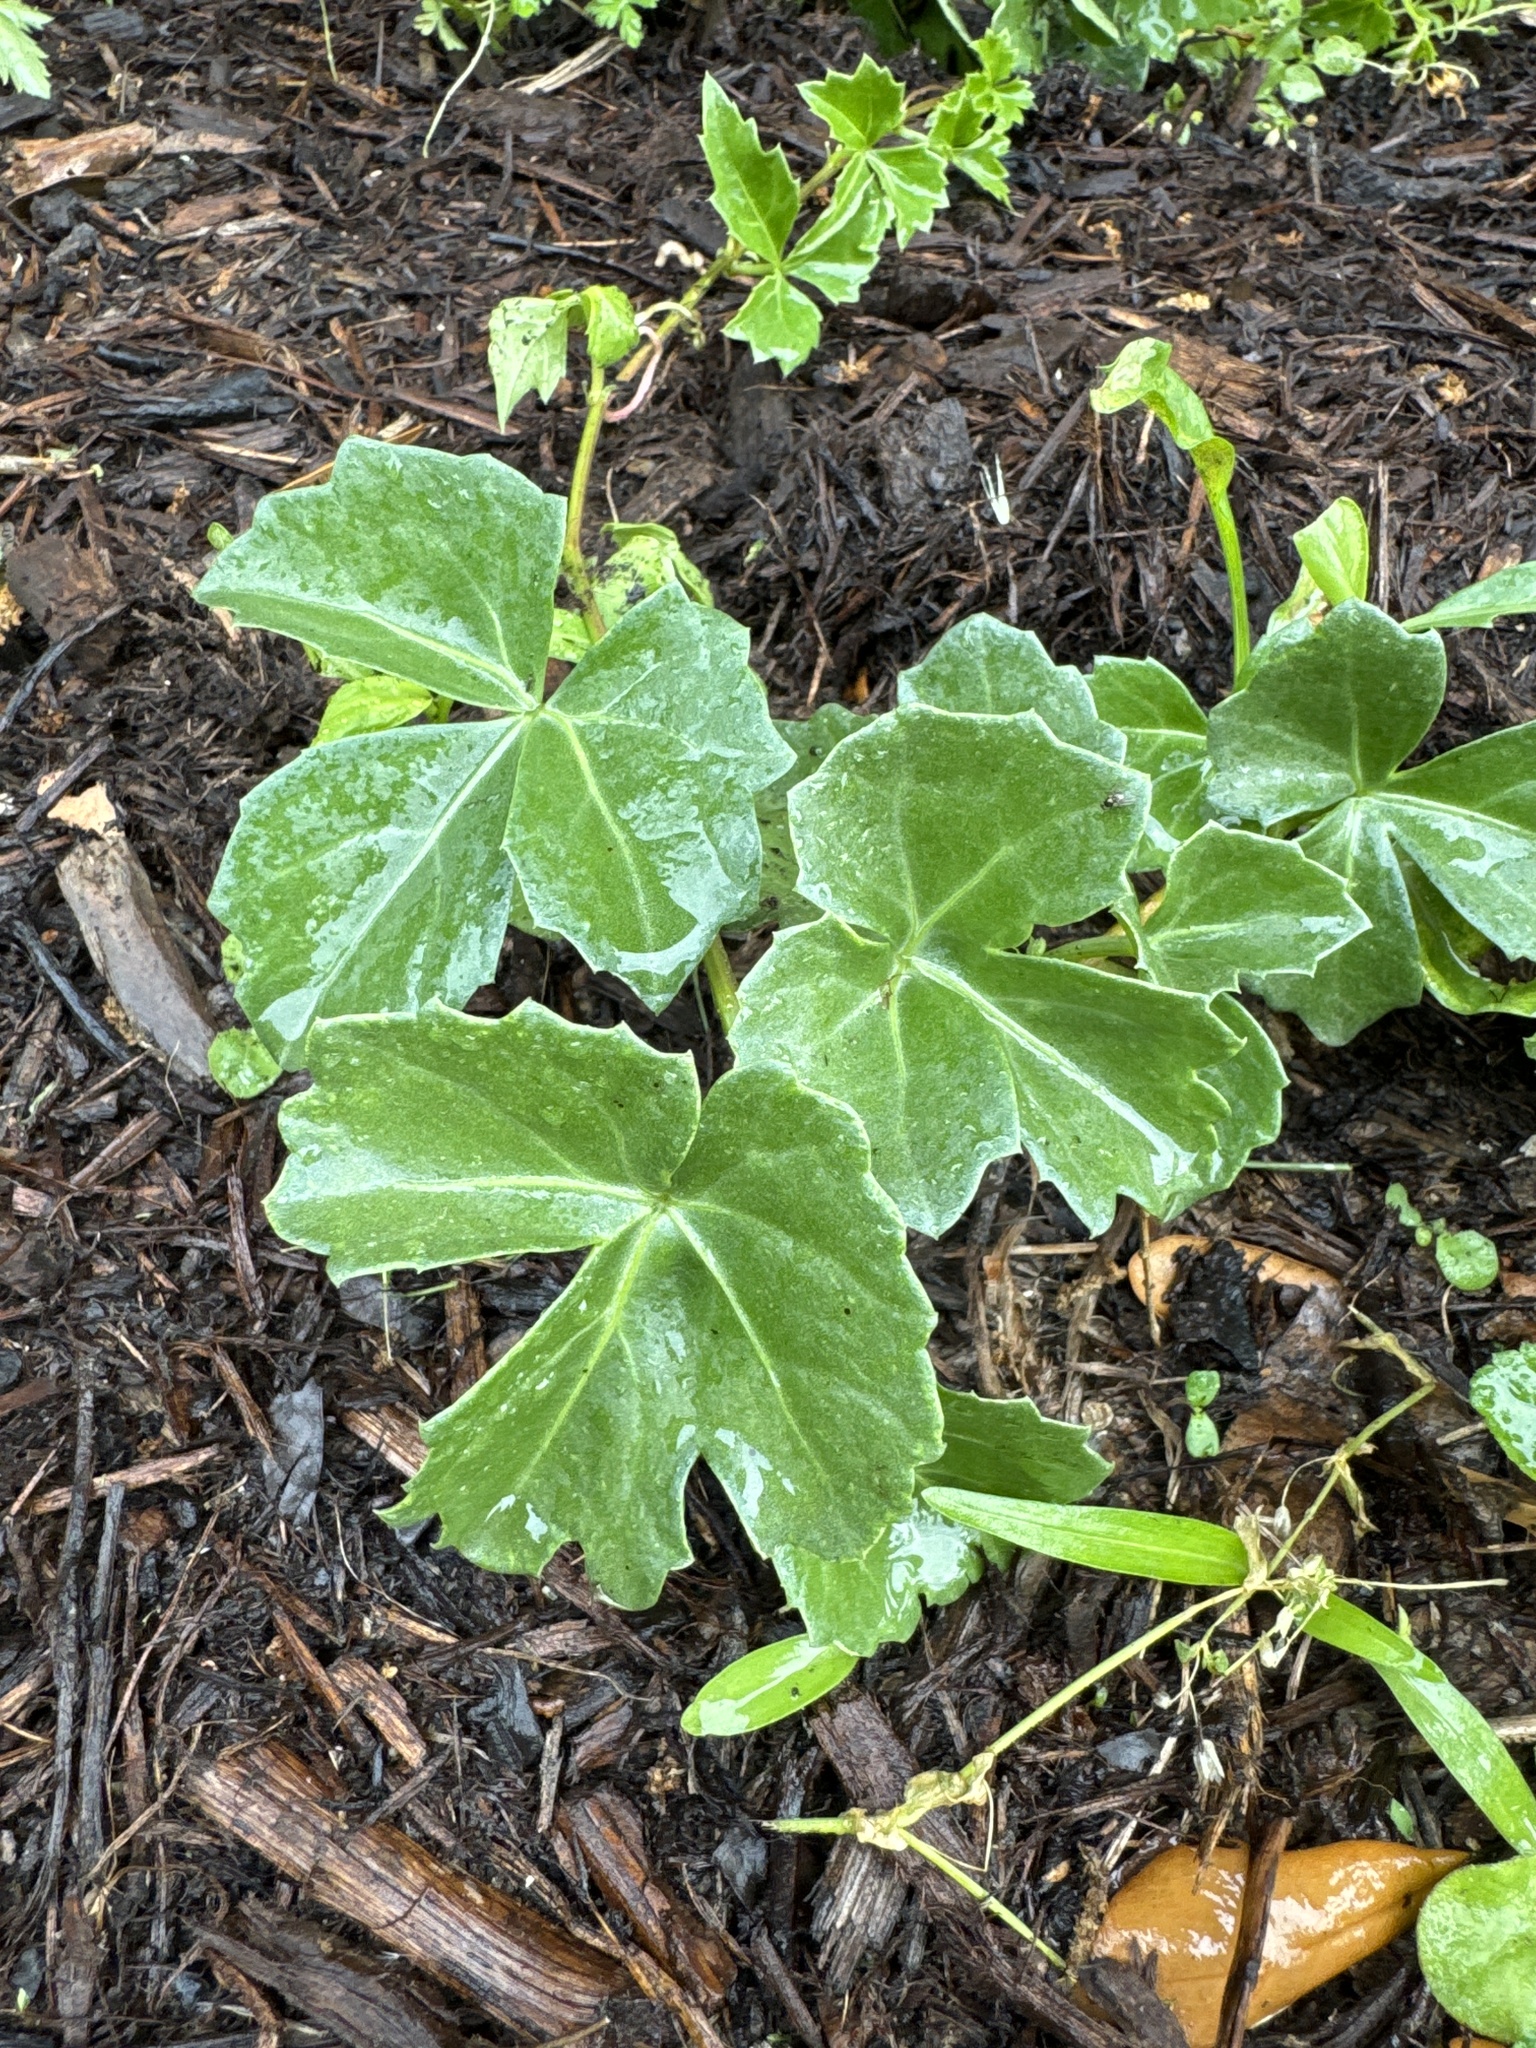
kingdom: Plantae
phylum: Tracheophyta
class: Magnoliopsida
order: Vitales
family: Vitaceae
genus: Cissus
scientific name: Cissus trifoliata
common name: Vine-sorrel
